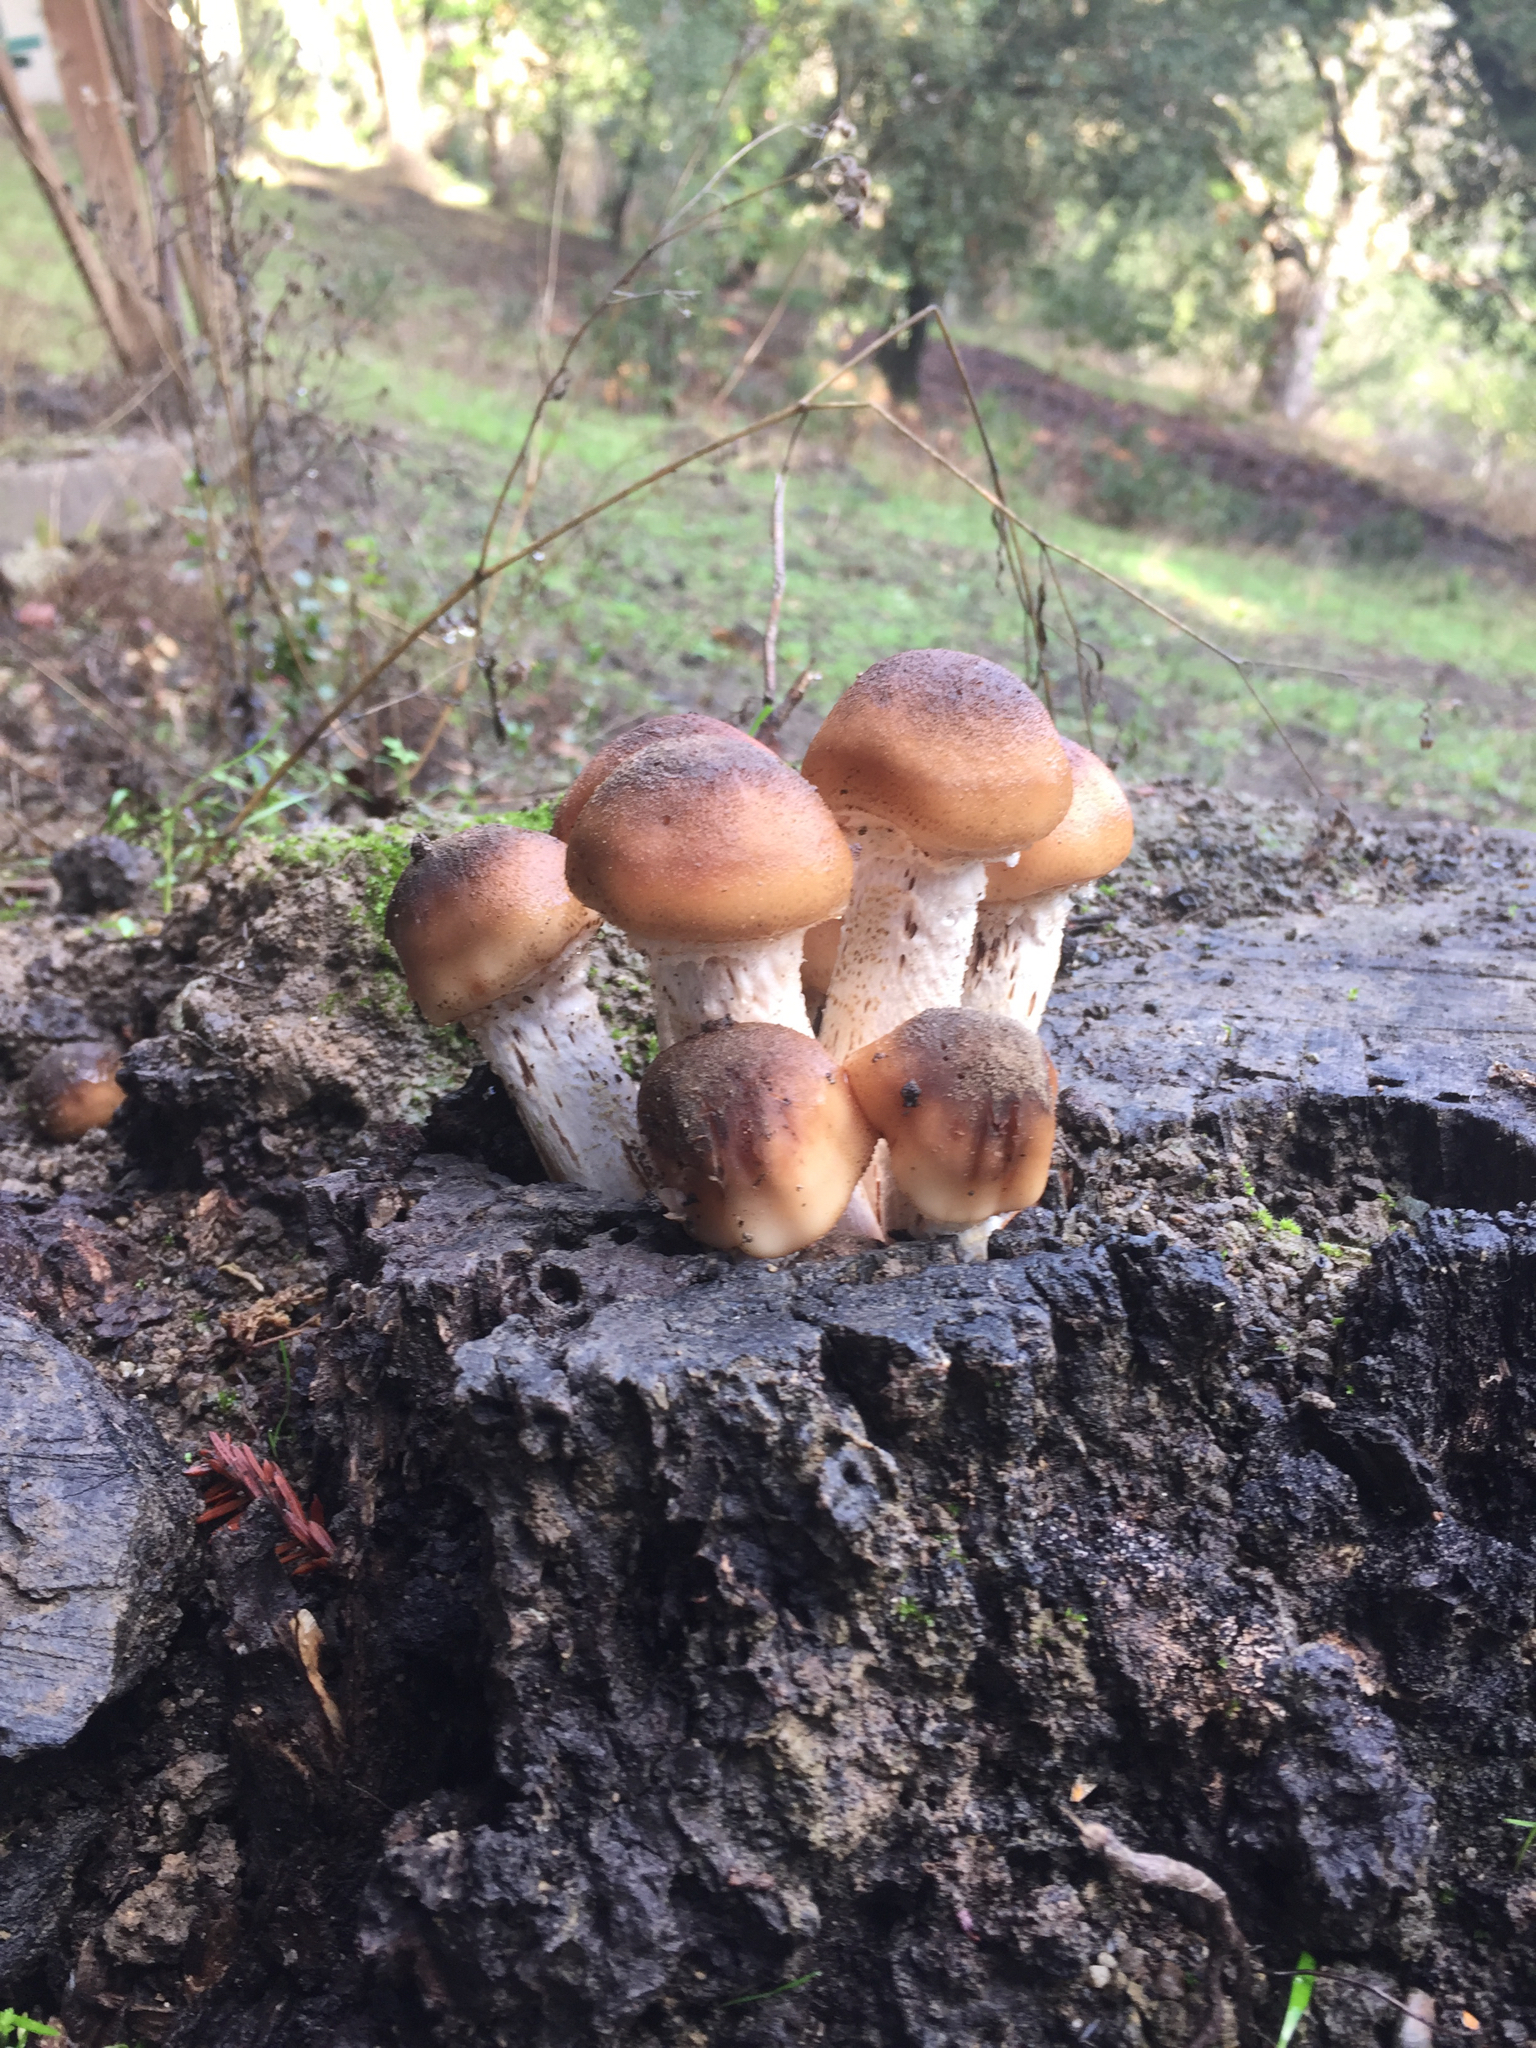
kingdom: Fungi
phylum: Basidiomycota
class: Agaricomycetes
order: Agaricales
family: Physalacriaceae
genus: Armillaria
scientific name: Armillaria mellea
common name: Honey fungus
